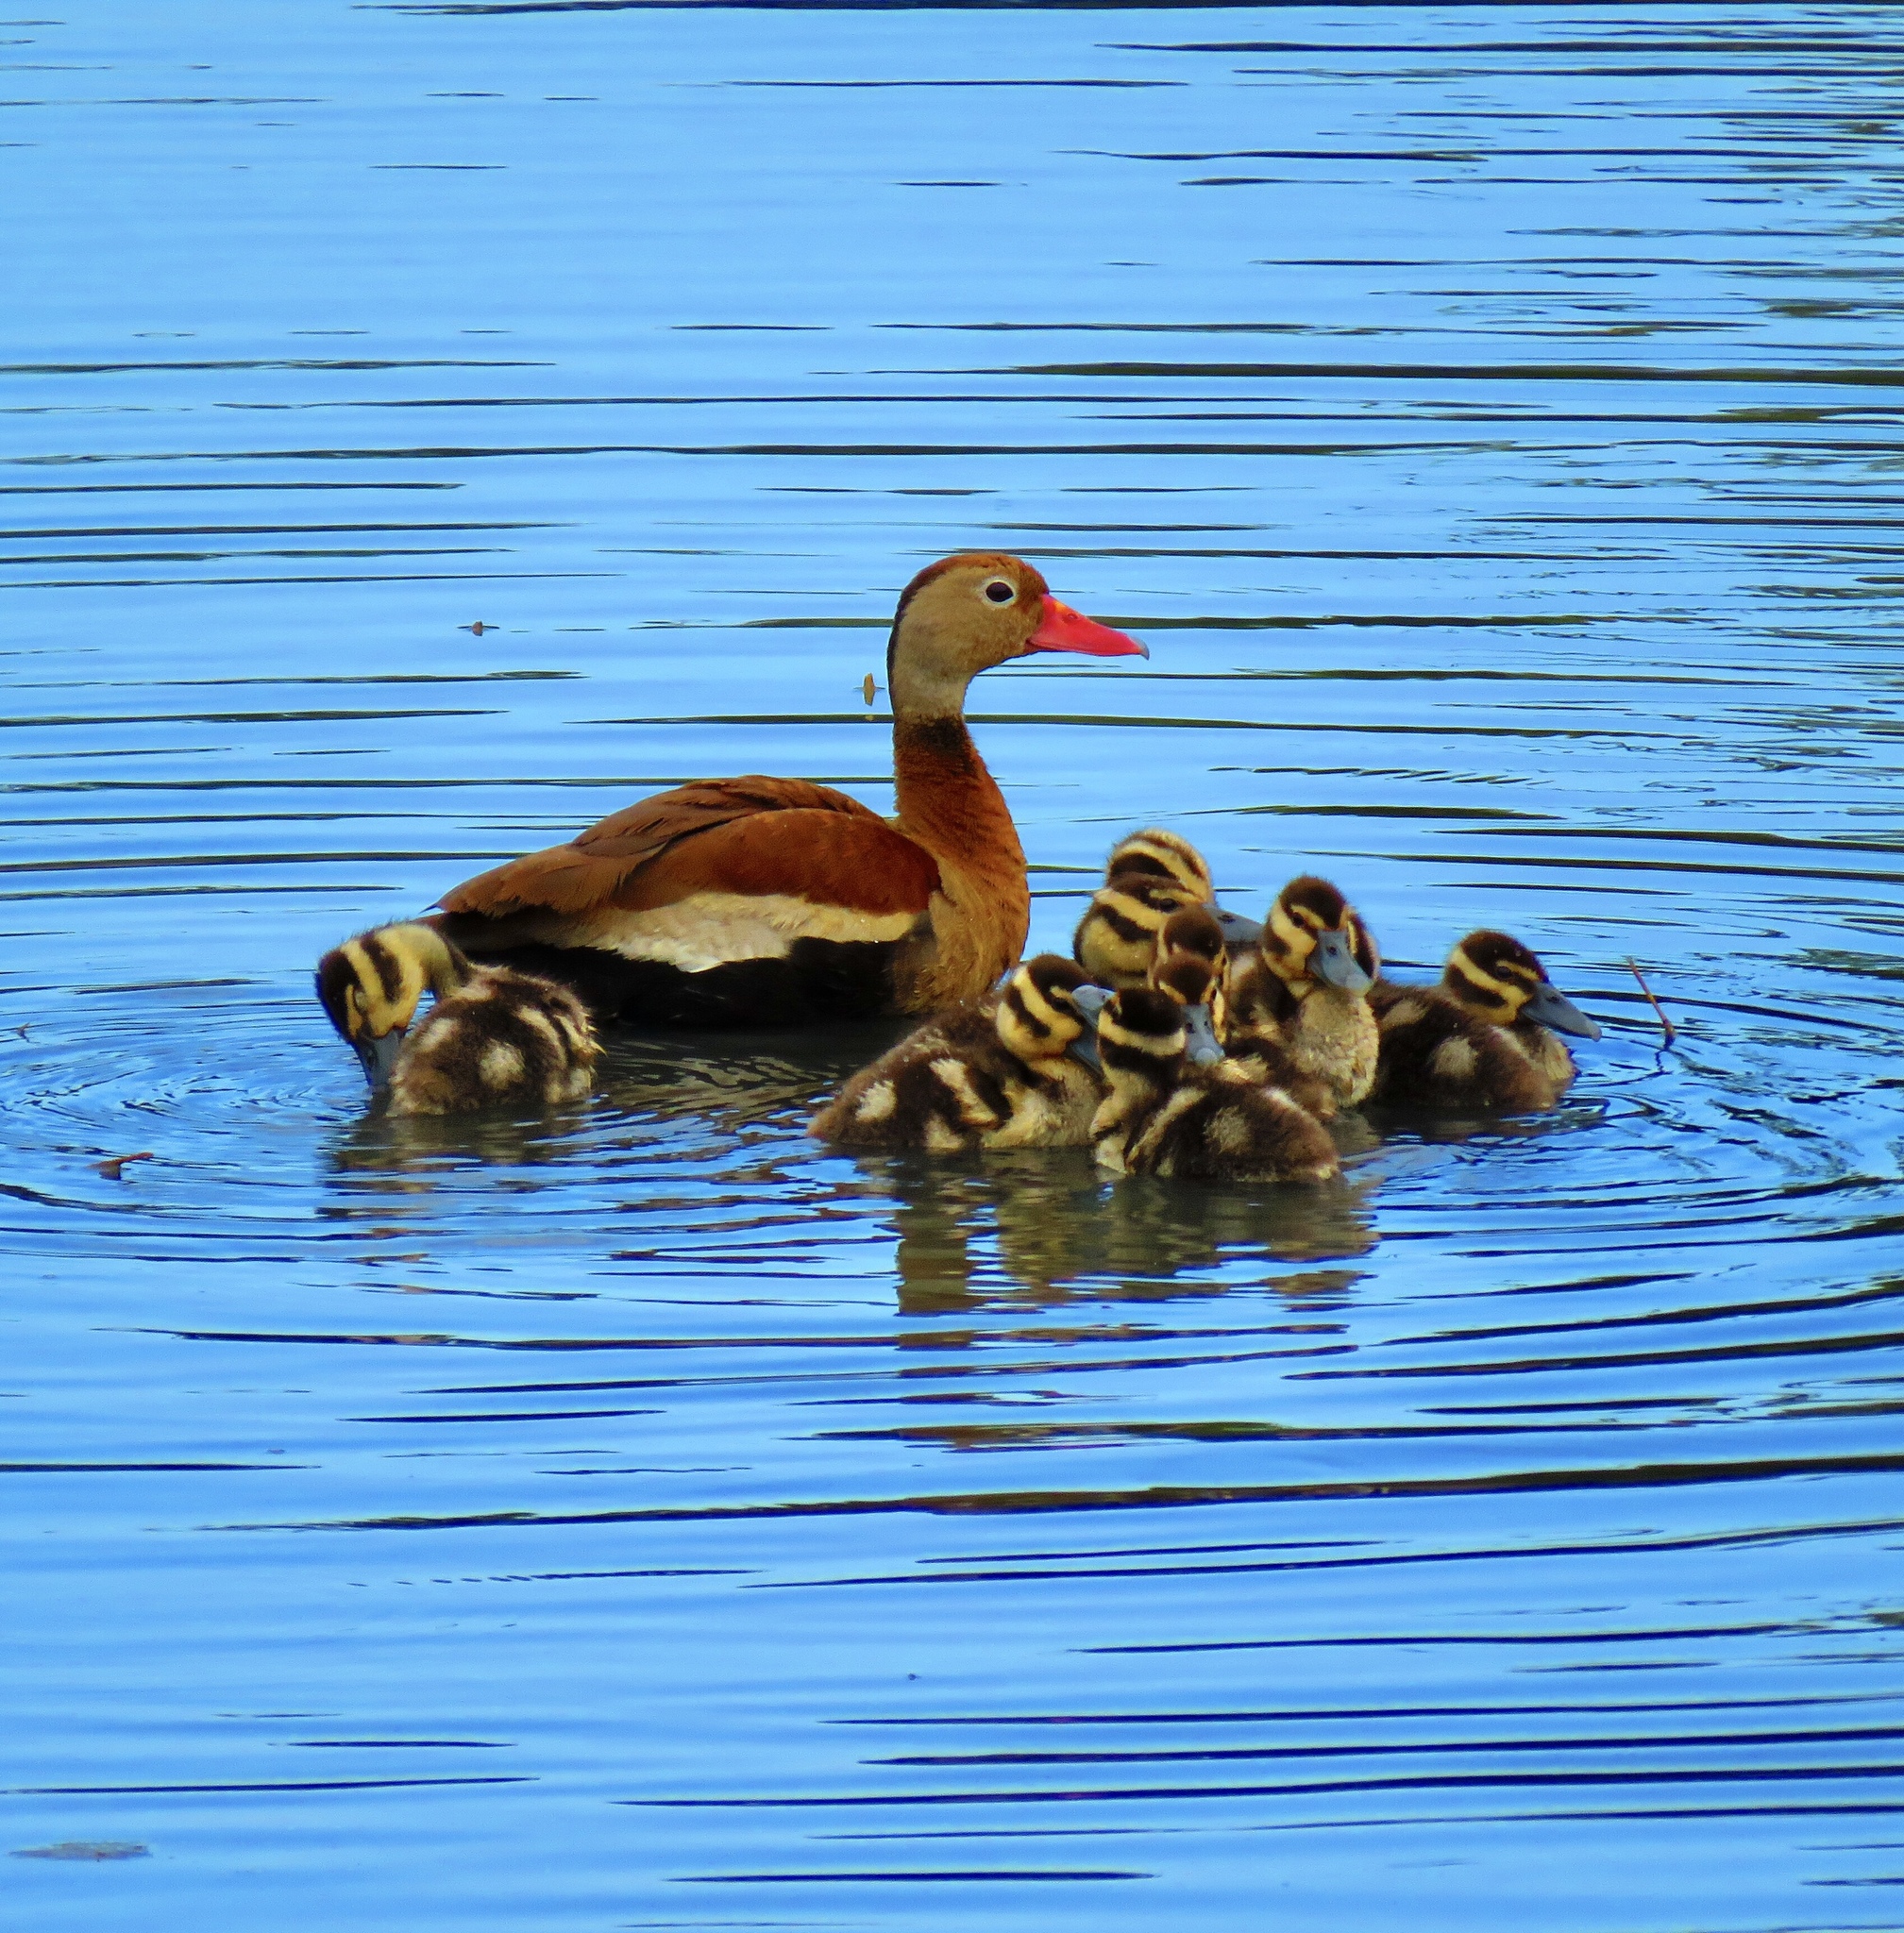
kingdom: Animalia
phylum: Chordata
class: Aves
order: Anseriformes
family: Anatidae
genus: Dendrocygna
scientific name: Dendrocygna autumnalis
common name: Black-bellied whistling duck
